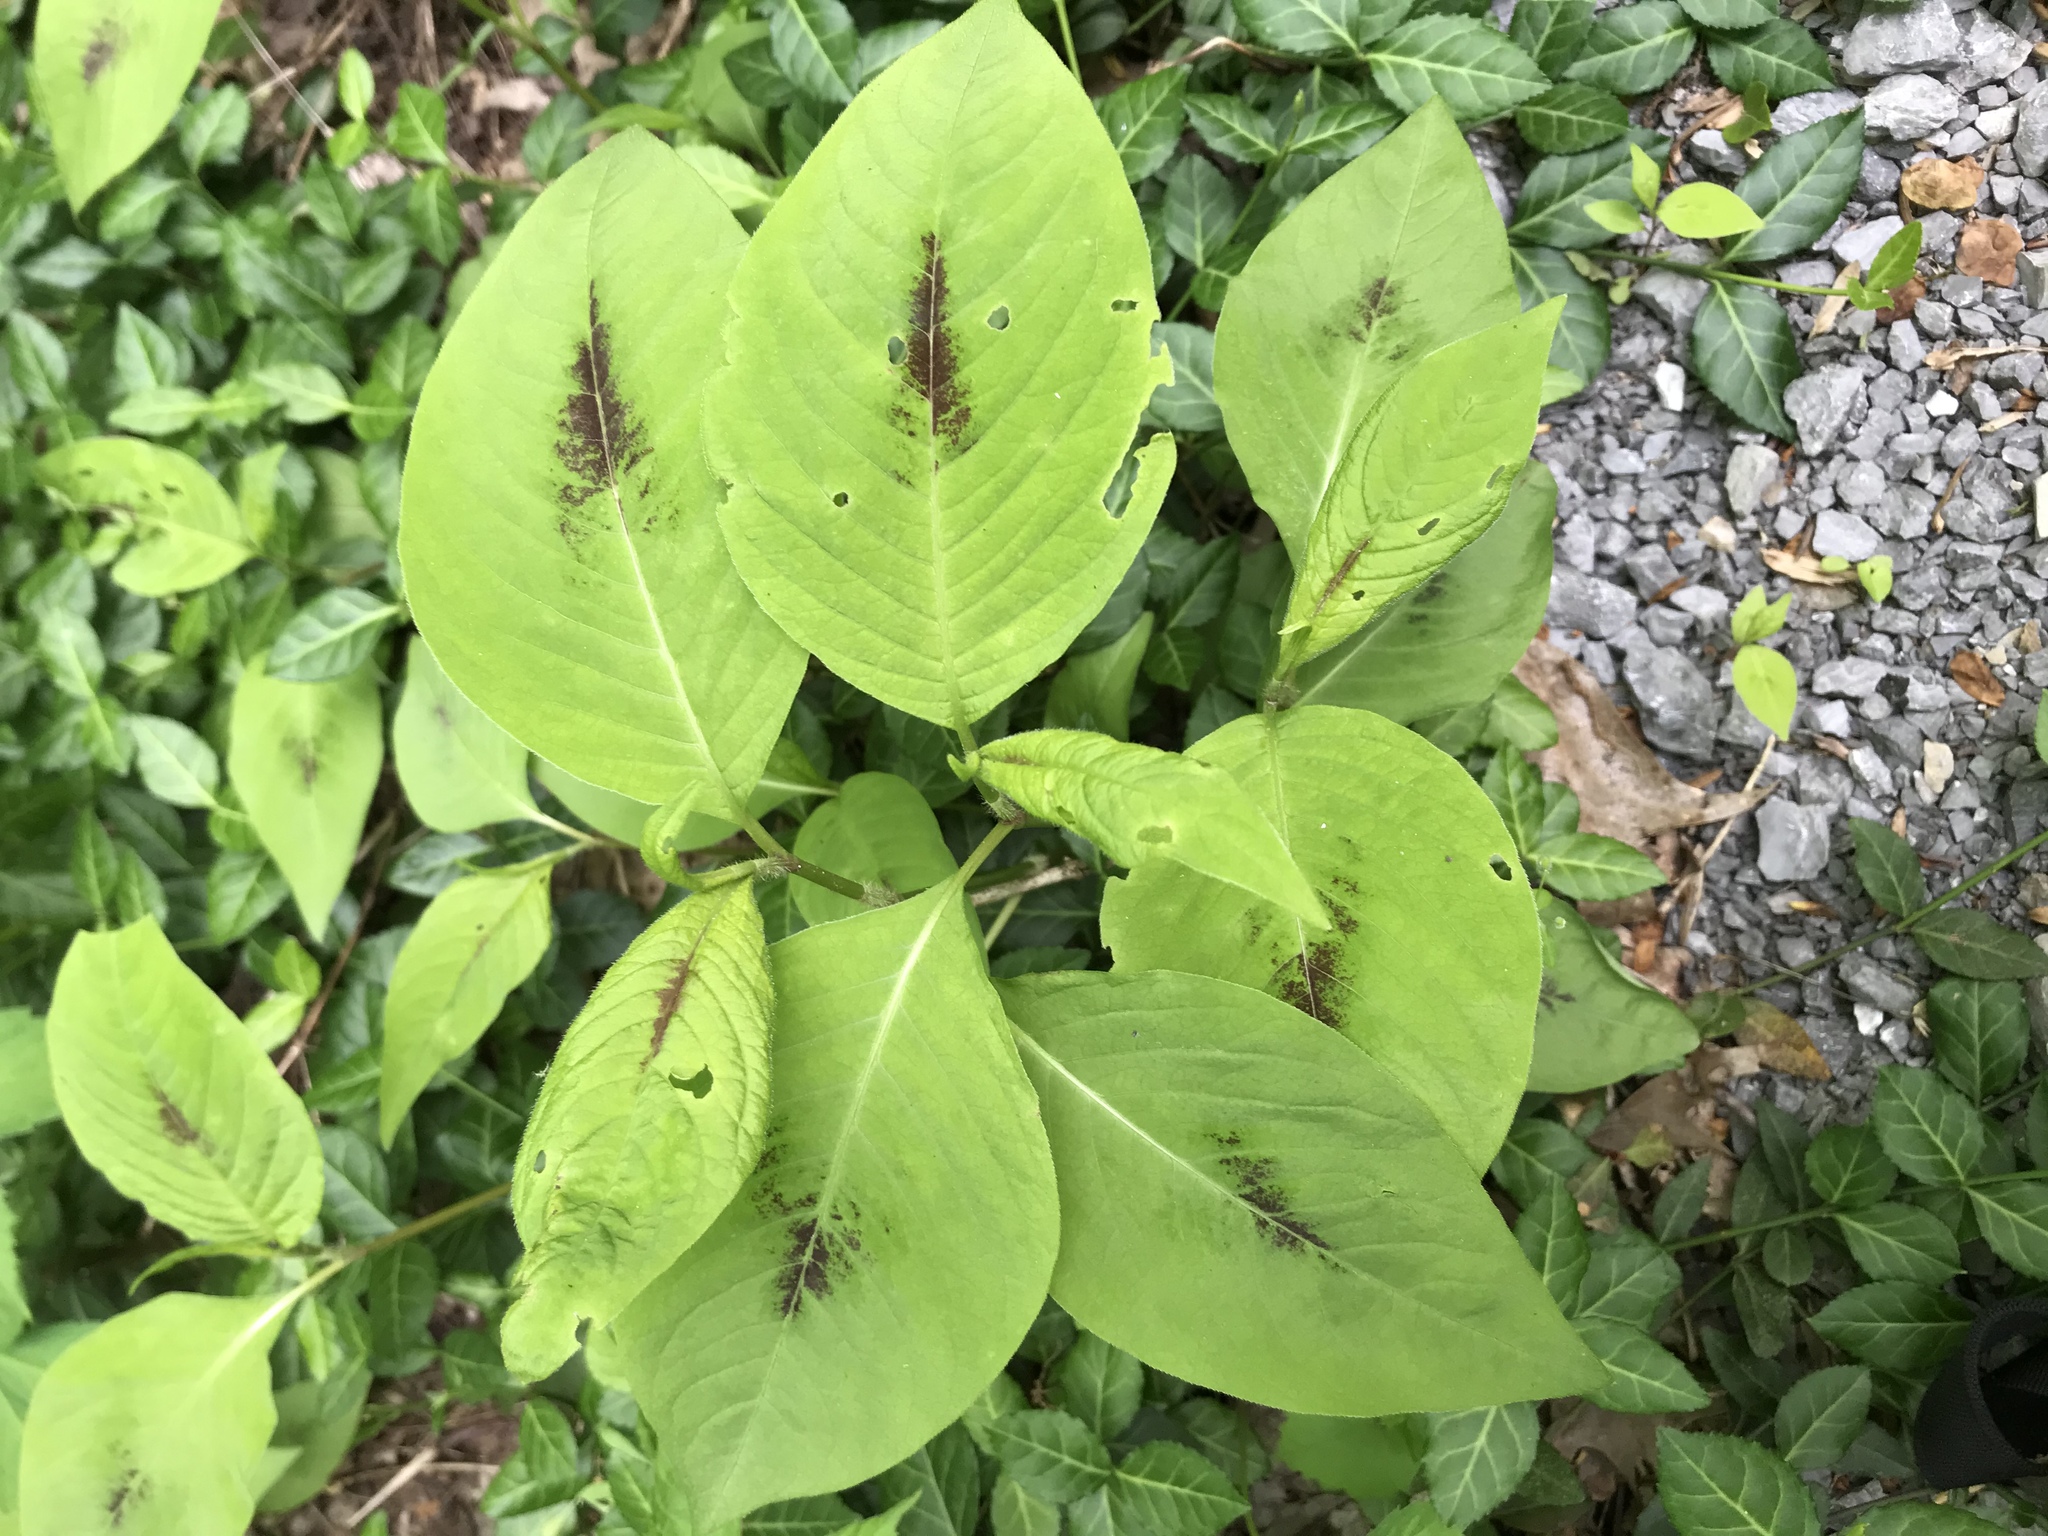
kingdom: Plantae
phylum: Tracheophyta
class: Magnoliopsida
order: Caryophyllales
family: Polygonaceae
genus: Persicaria
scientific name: Persicaria maculosa
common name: Redshank
